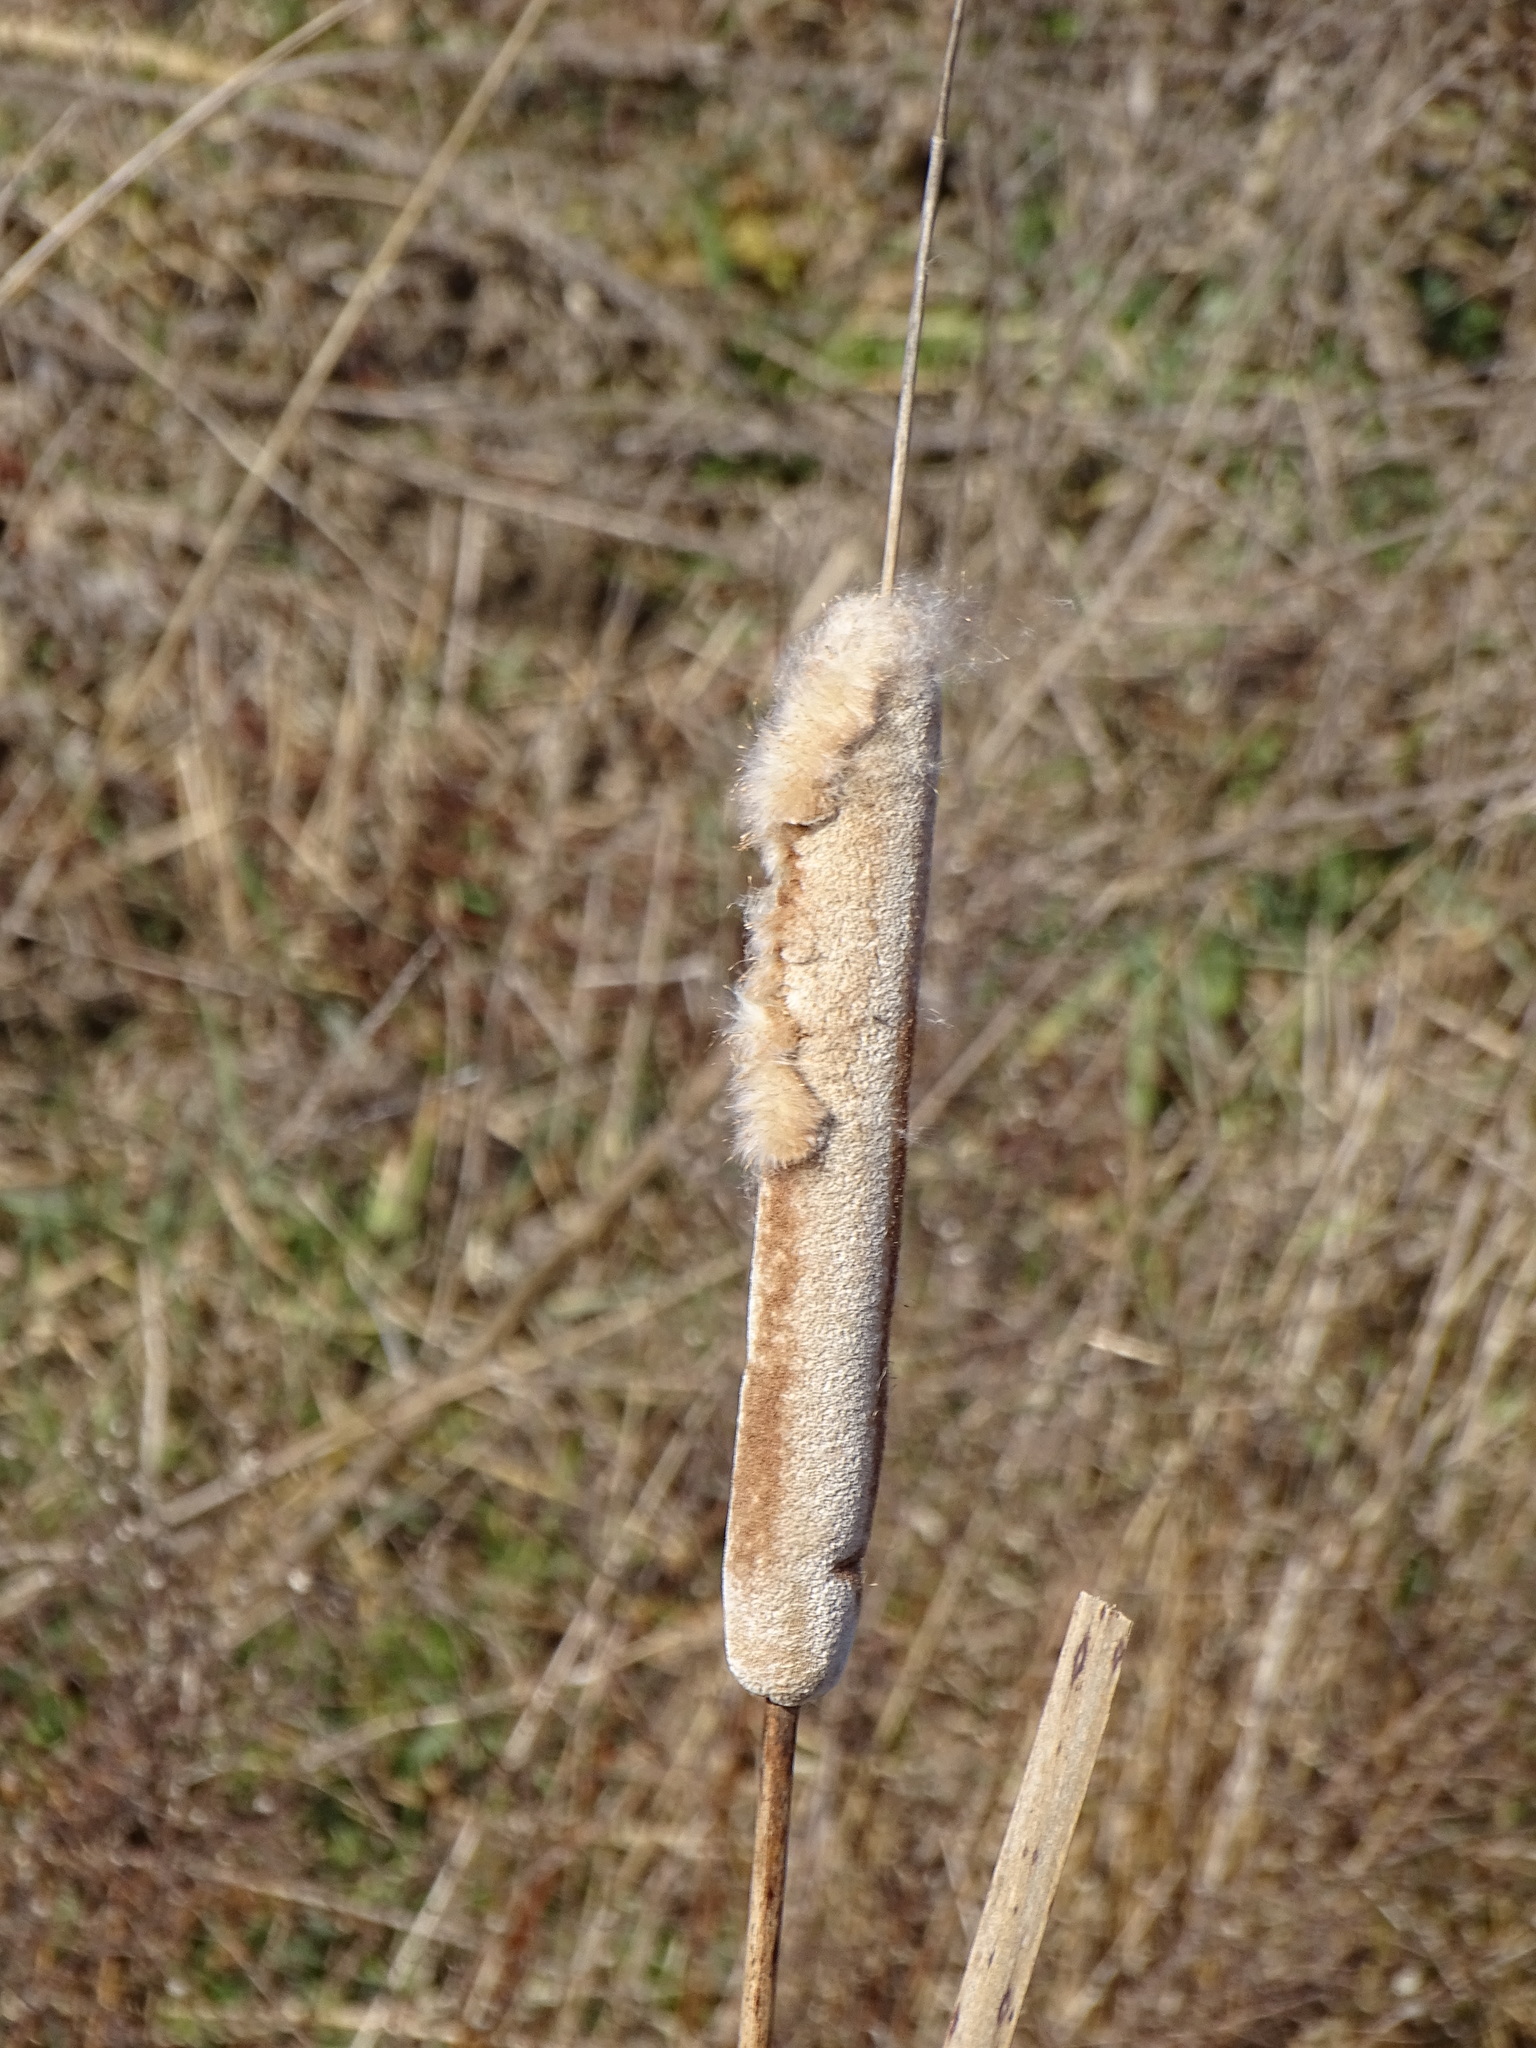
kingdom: Plantae
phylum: Tracheophyta
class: Liliopsida
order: Poales
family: Typhaceae
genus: Typha
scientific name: Typha latifolia
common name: Broadleaf cattail
